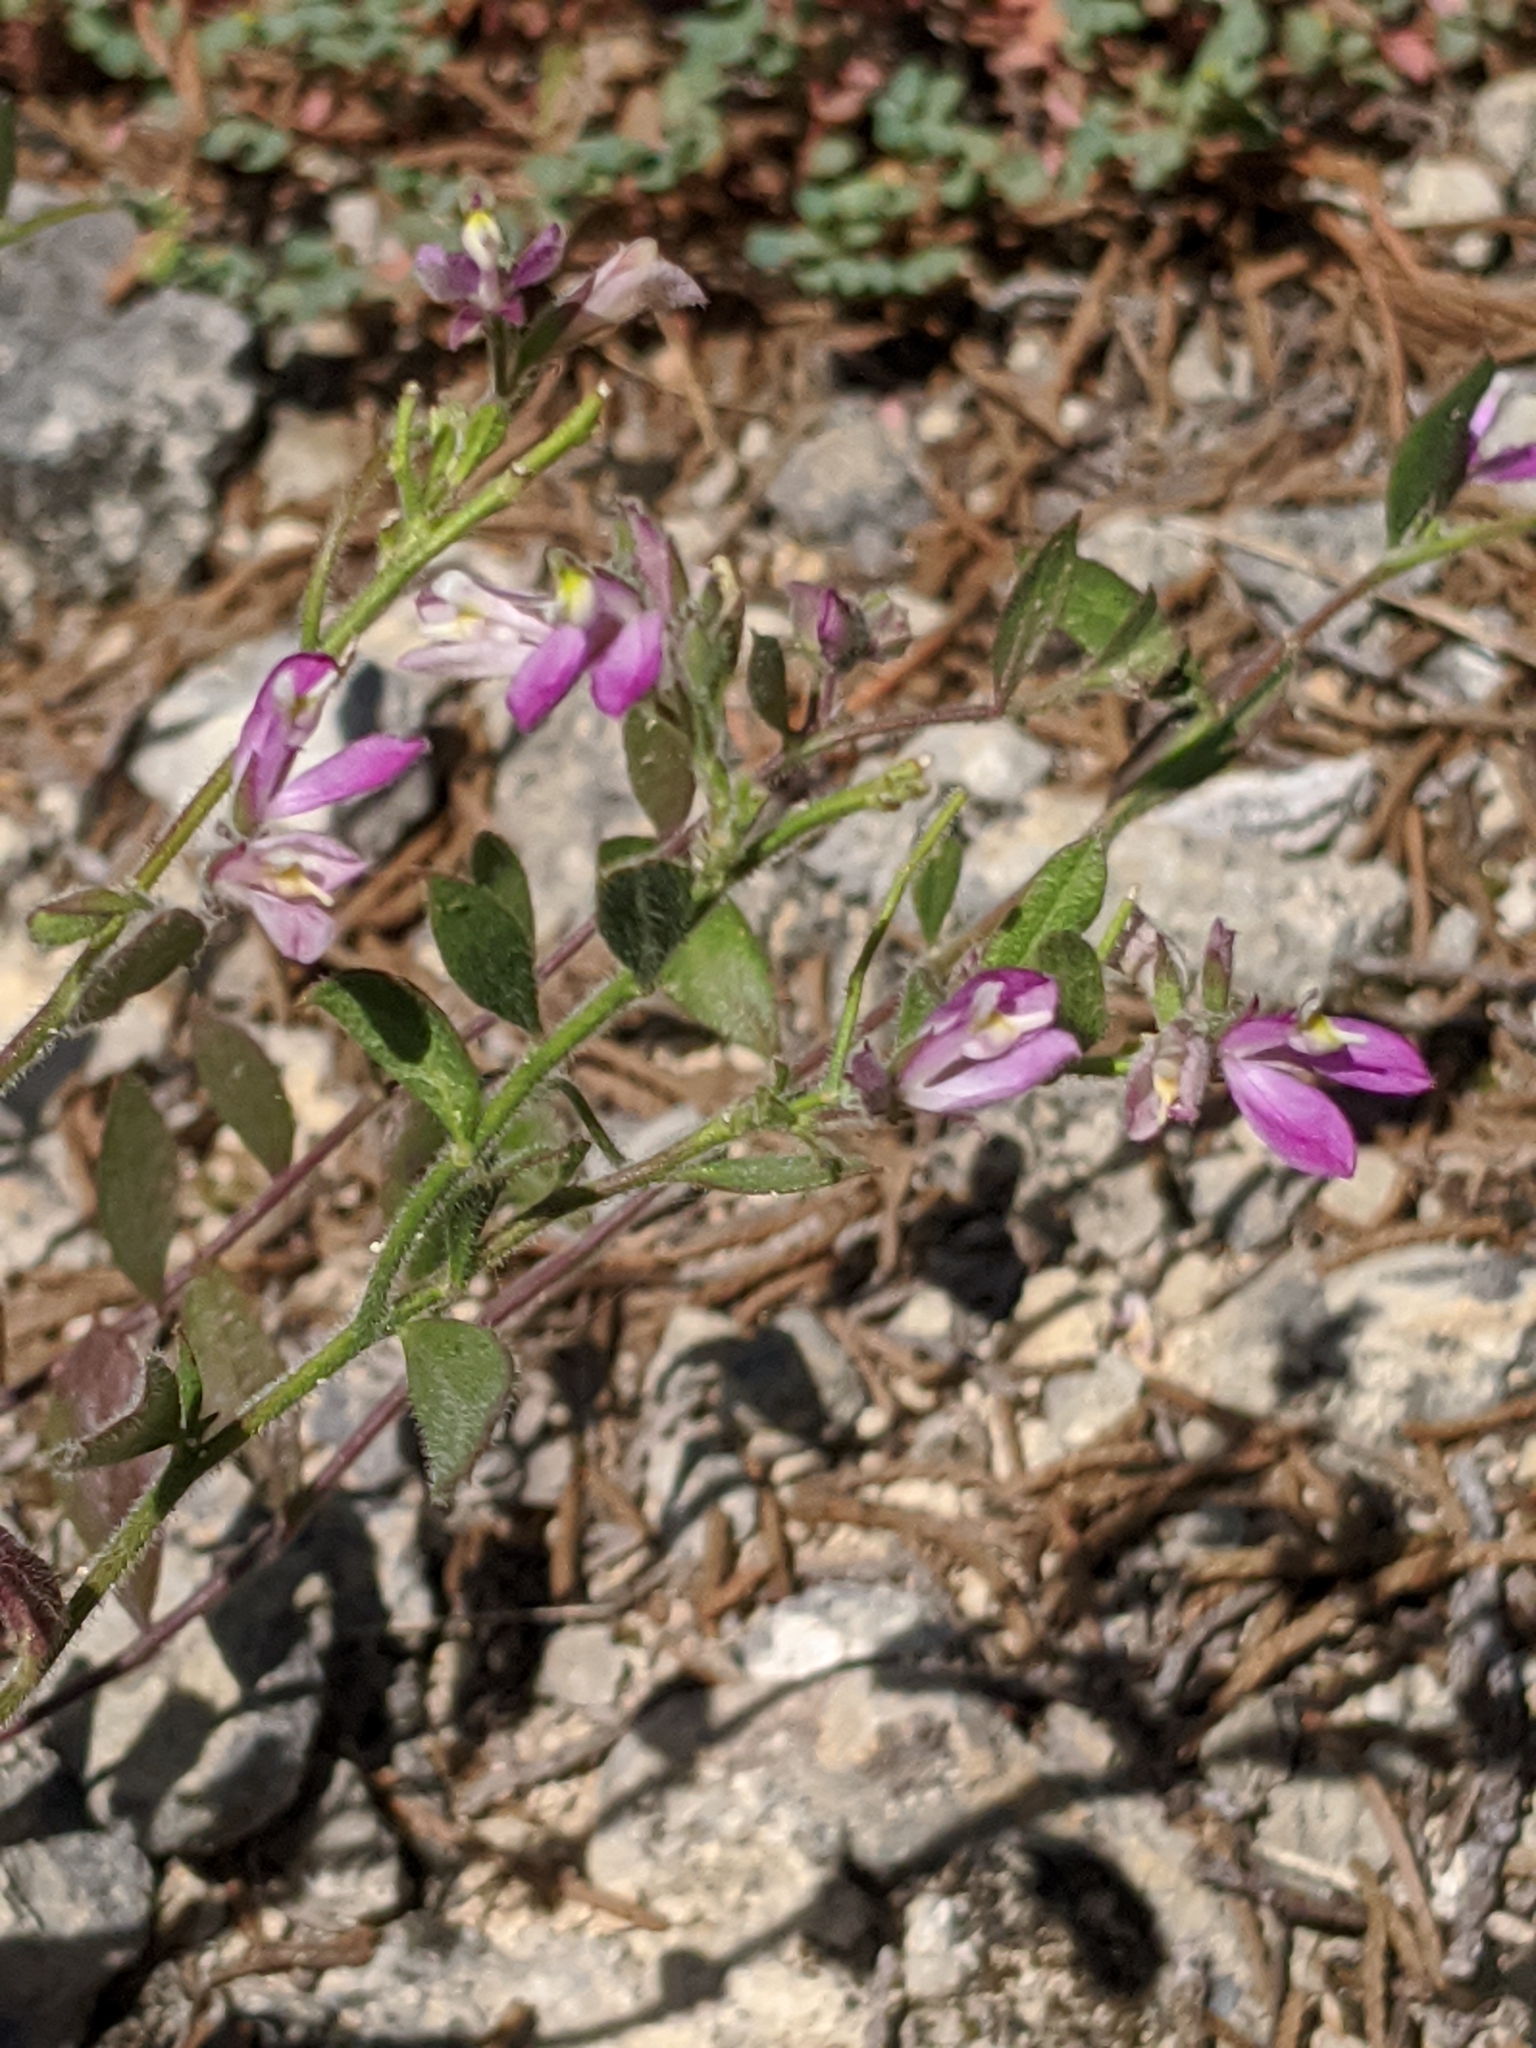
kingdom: Plantae
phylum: Tracheophyta
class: Magnoliopsida
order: Fabales
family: Polygalaceae
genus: Rhinotropis
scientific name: Rhinotropis lindheimeri
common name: Shrubby milkwort
